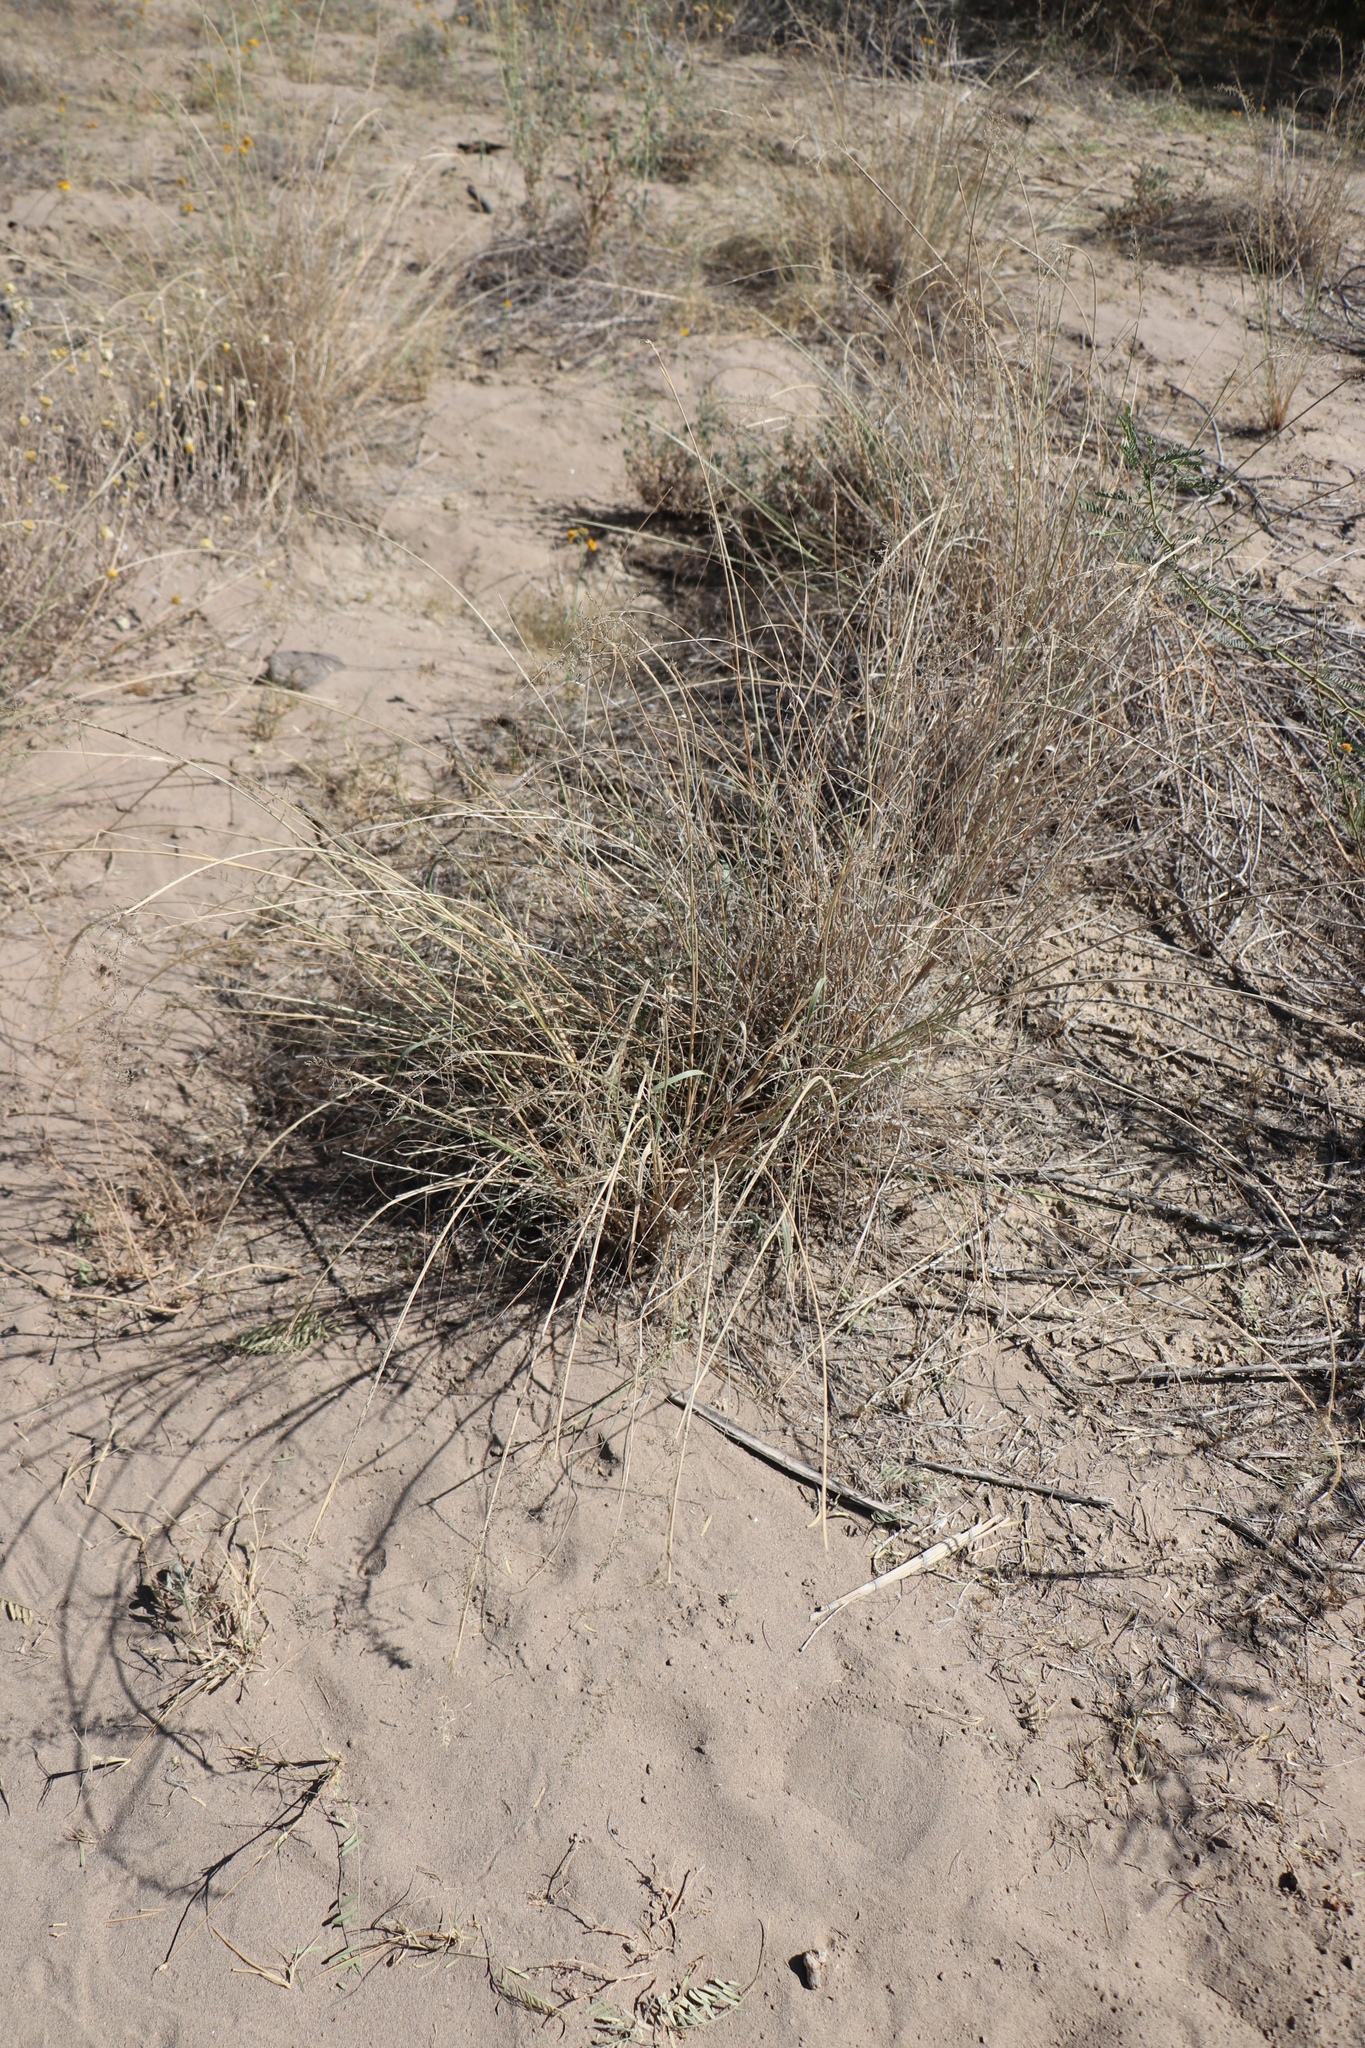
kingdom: Plantae
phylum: Tracheophyta
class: Liliopsida
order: Poales
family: Poaceae
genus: Sporobolus
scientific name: Sporobolus flexuosus
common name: Mesa dropseed
